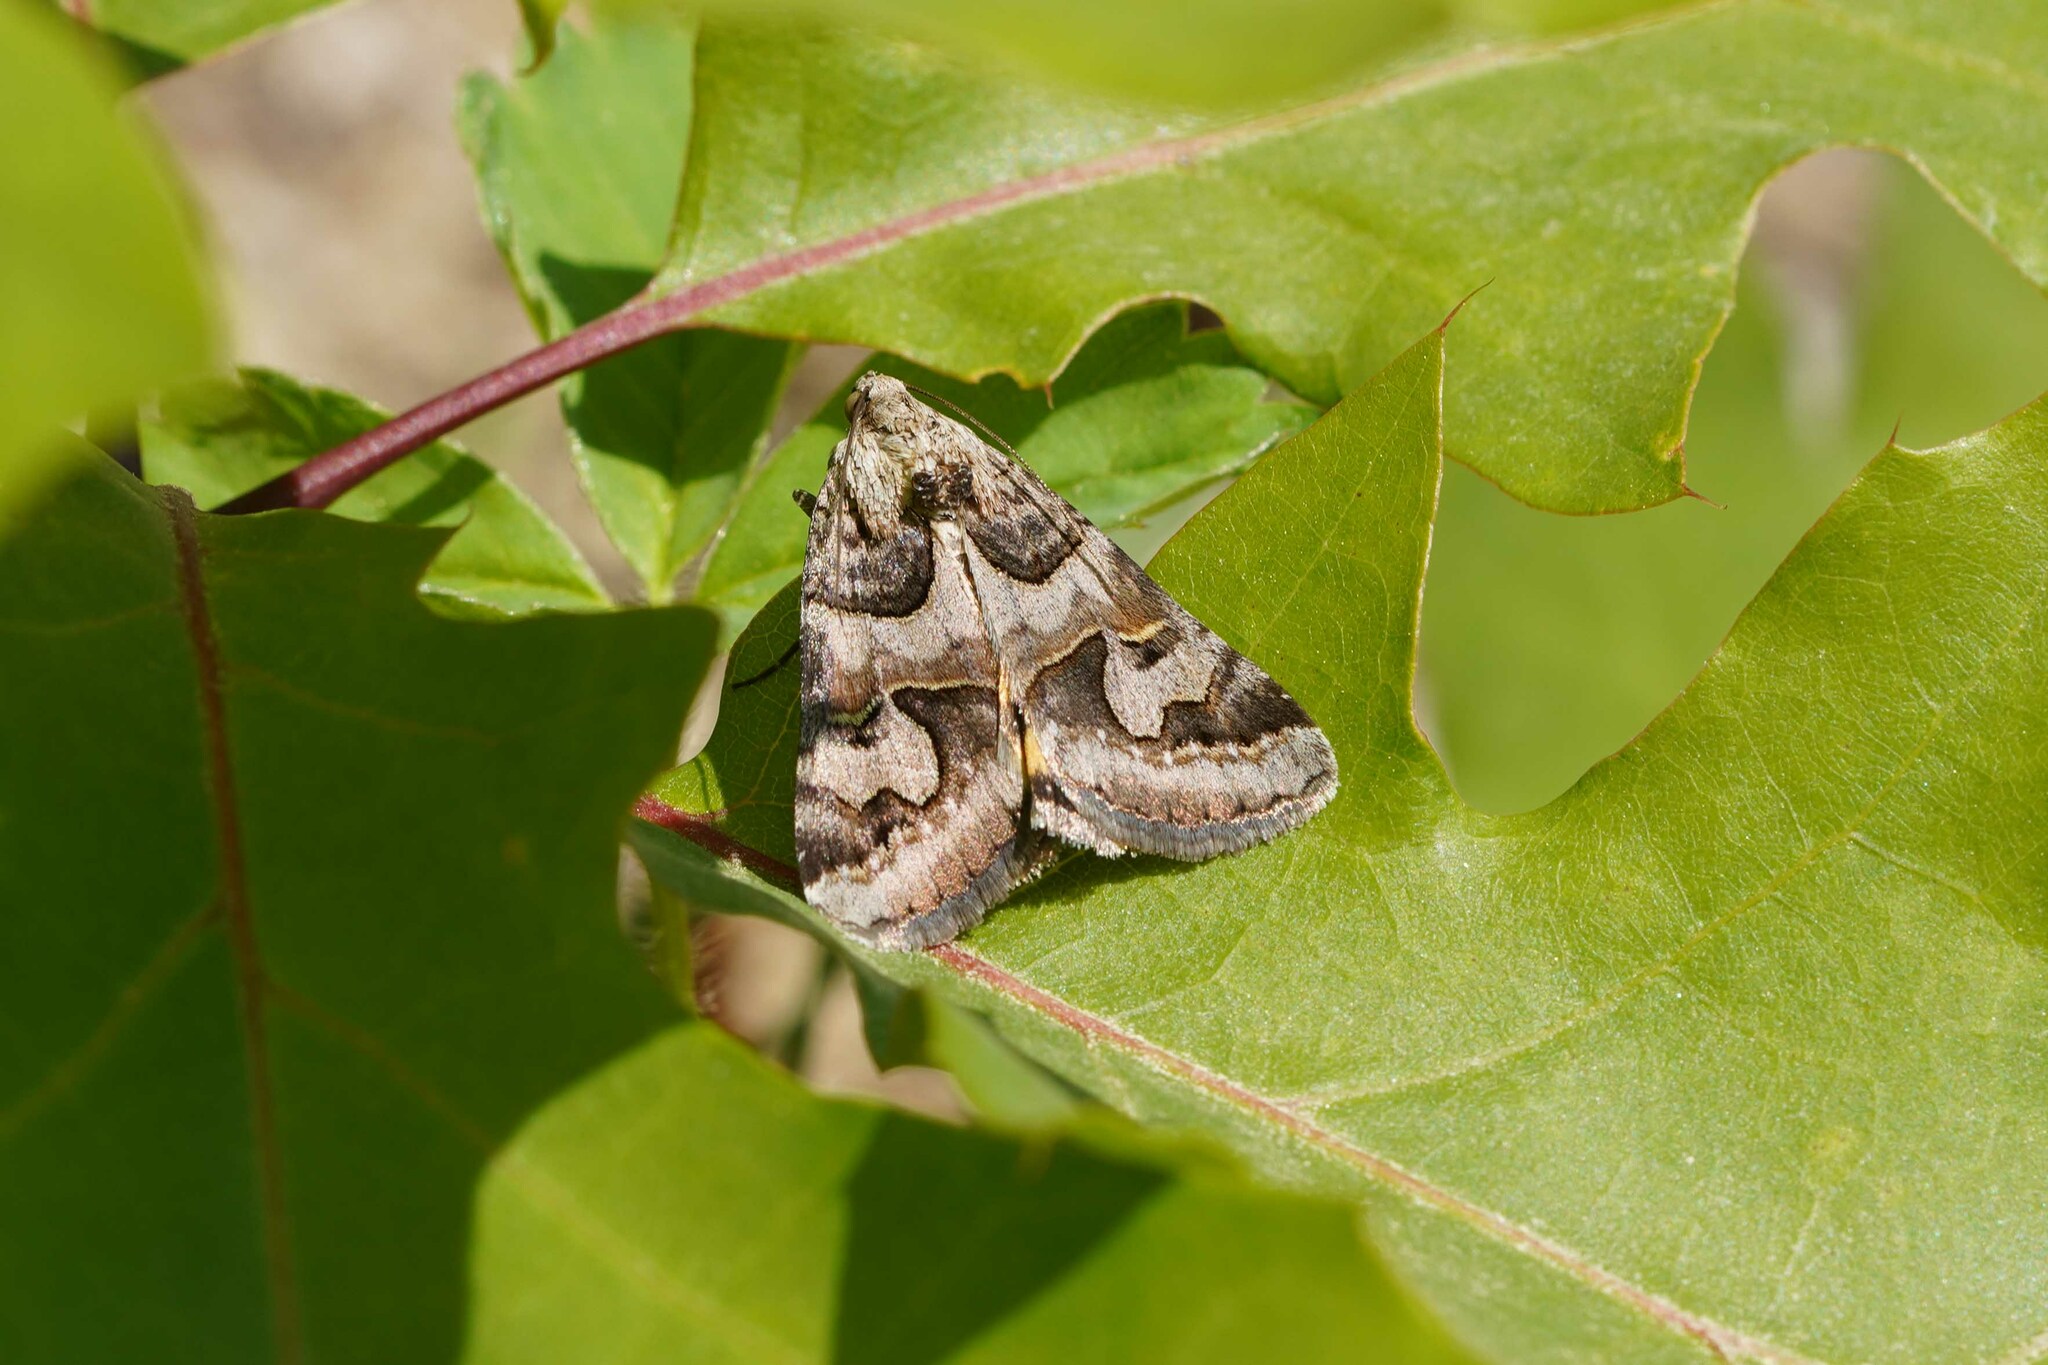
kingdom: Animalia
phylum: Arthropoda
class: Insecta
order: Lepidoptera
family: Erebidae
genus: Drasteria
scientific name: Drasteria graphica
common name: Coastal graphic
